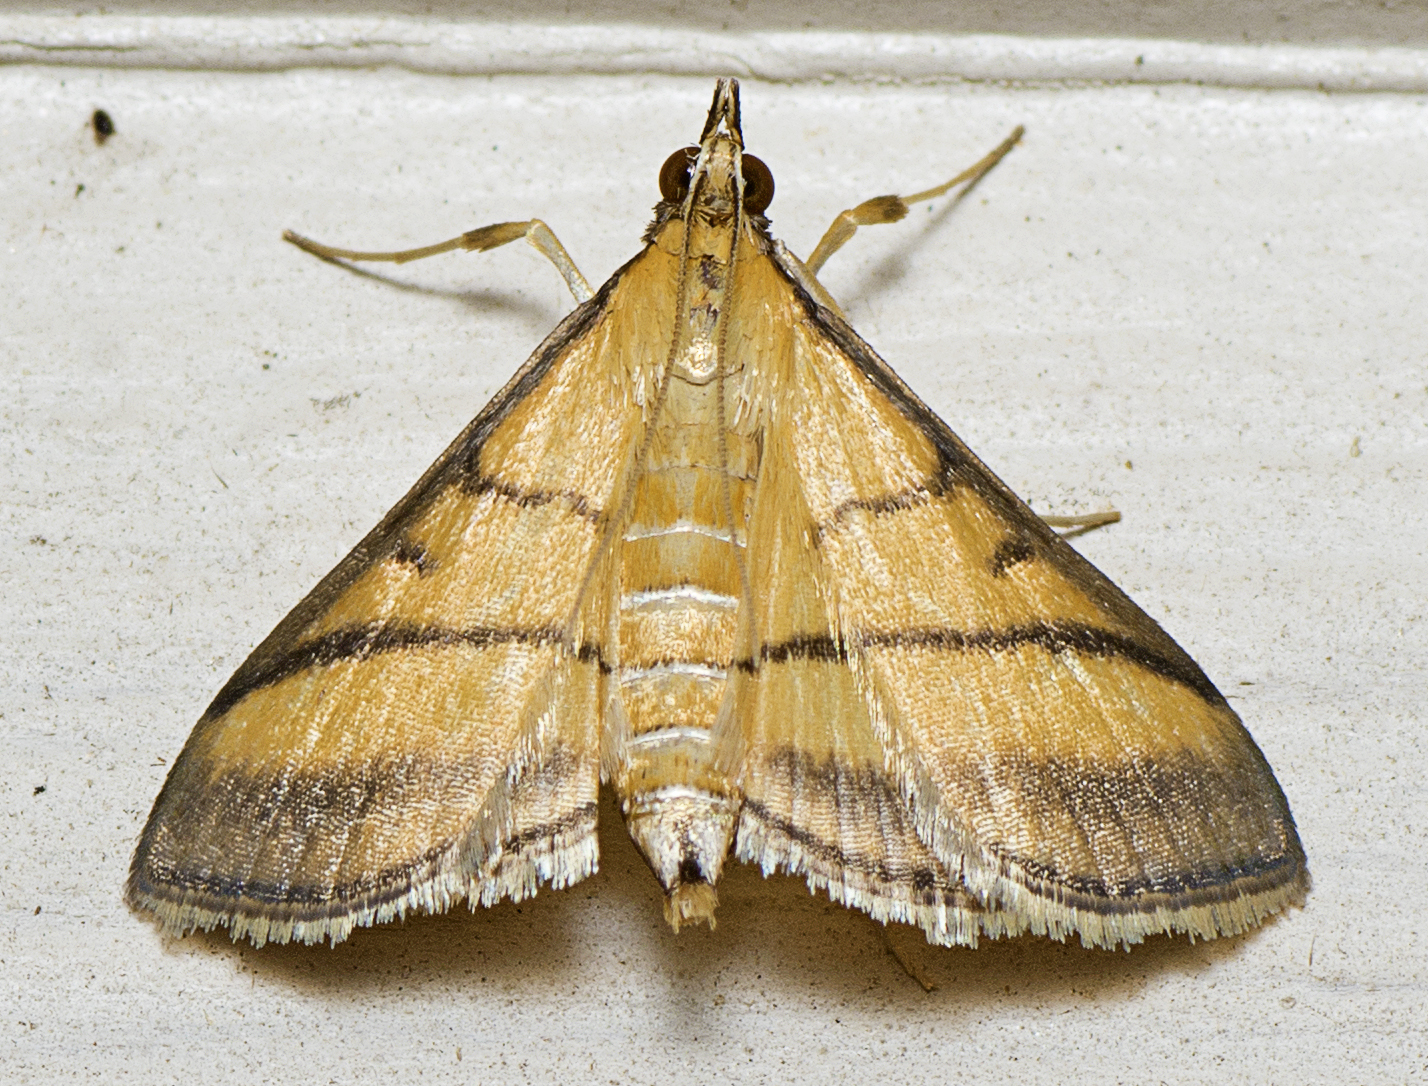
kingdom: Animalia
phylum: Arthropoda
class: Insecta
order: Lepidoptera
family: Crambidae
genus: Cnaphalocrocis
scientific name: Cnaphalocrocis medinalis
